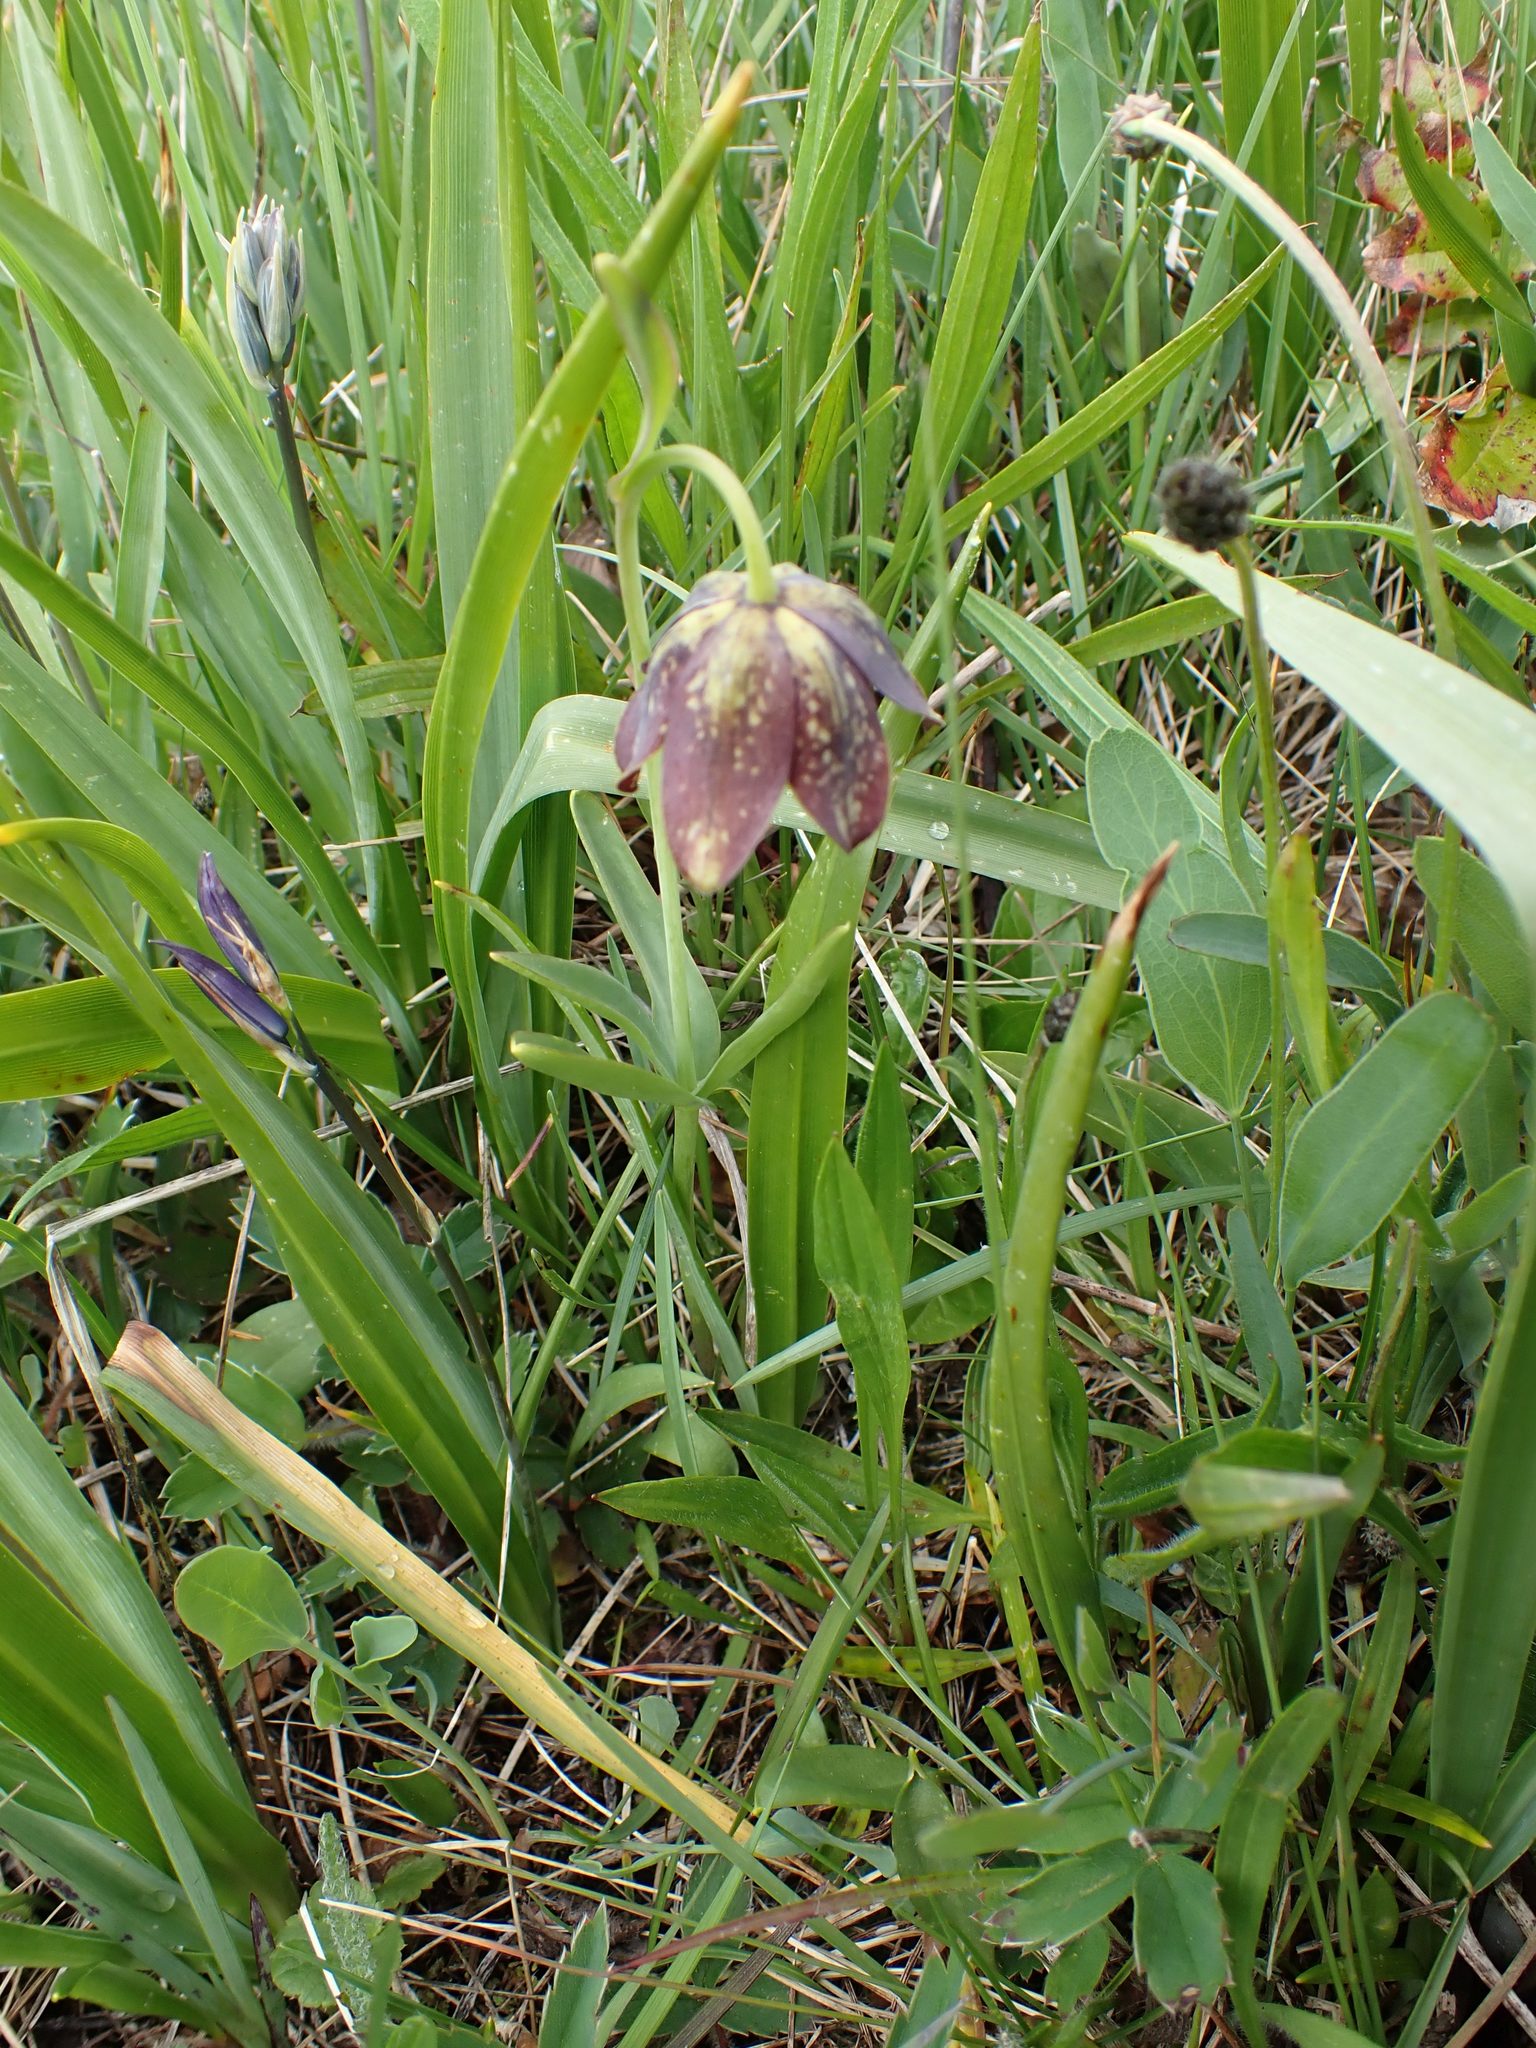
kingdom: Plantae
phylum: Tracheophyta
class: Liliopsida
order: Liliales
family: Liliaceae
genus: Fritillaria
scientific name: Fritillaria affinis
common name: Ojai fritillary
